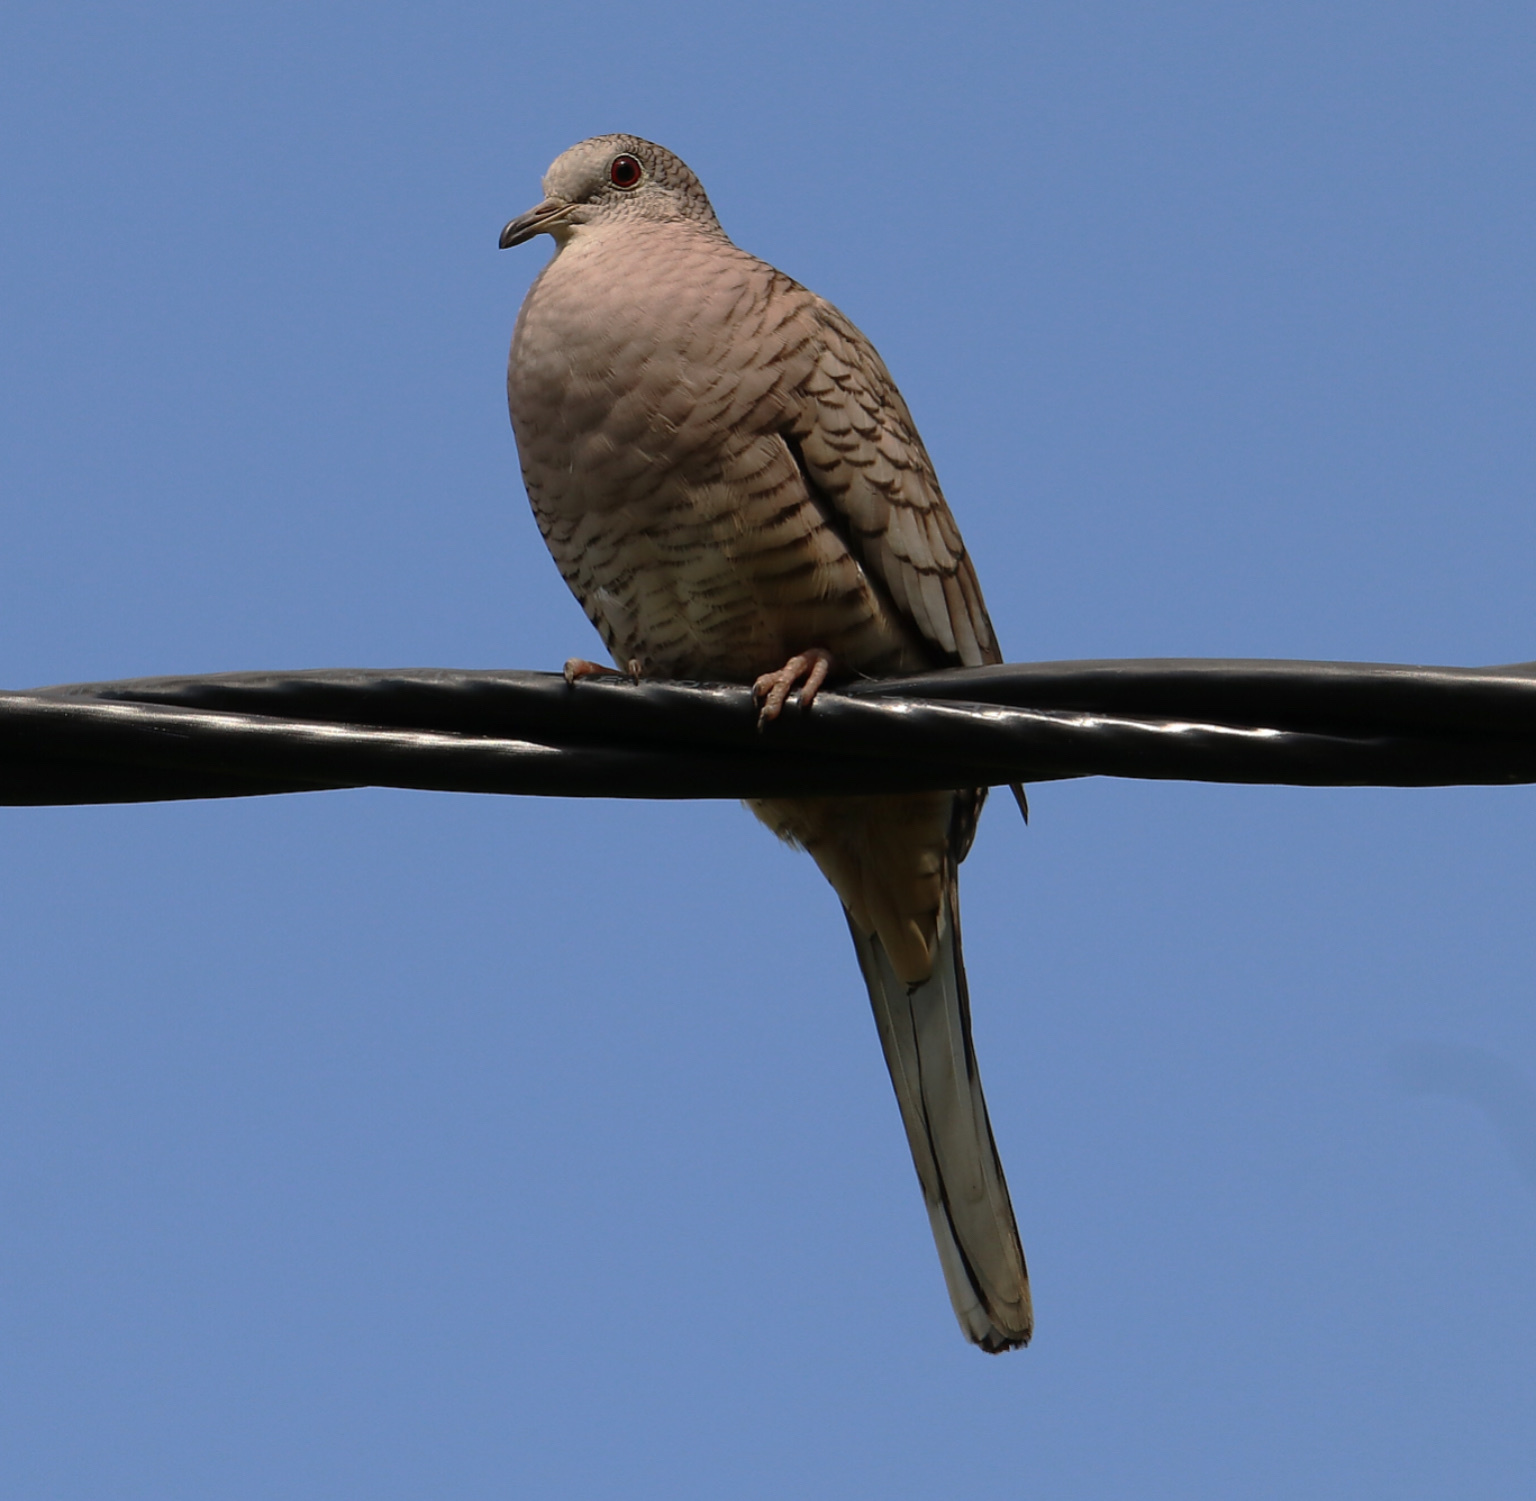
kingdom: Animalia
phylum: Chordata
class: Aves
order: Columbiformes
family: Columbidae
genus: Columbina
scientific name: Columbina inca
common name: Inca dove
